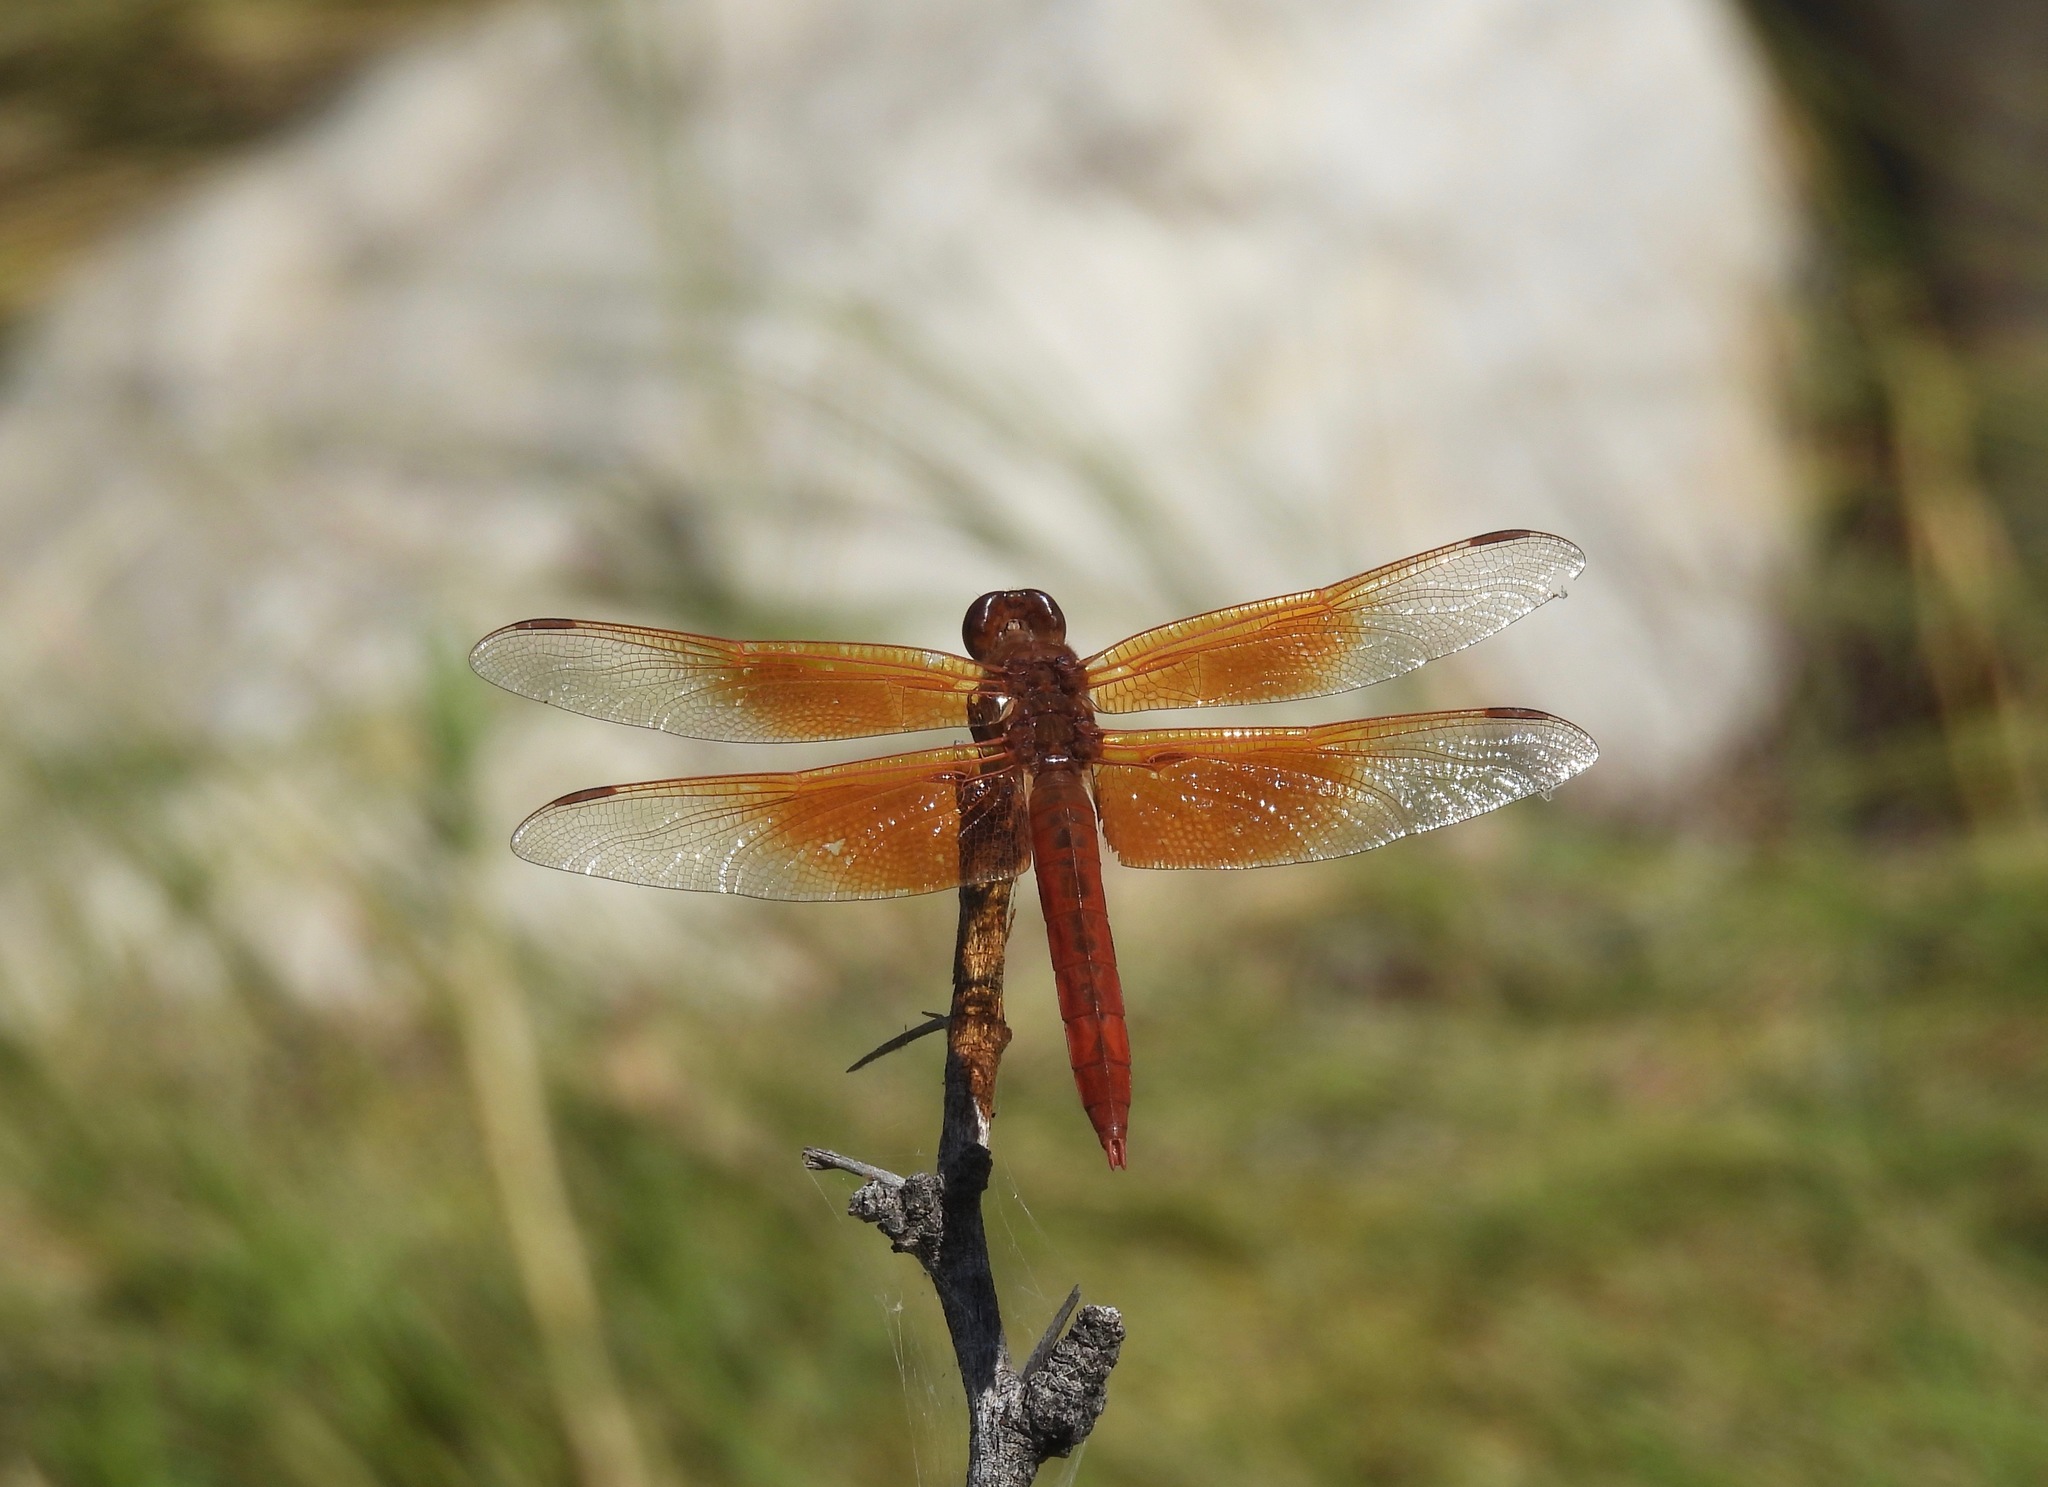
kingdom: Animalia
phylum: Arthropoda
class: Insecta
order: Odonata
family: Libellulidae
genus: Libellula
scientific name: Libellula saturata
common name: Flame skimmer
